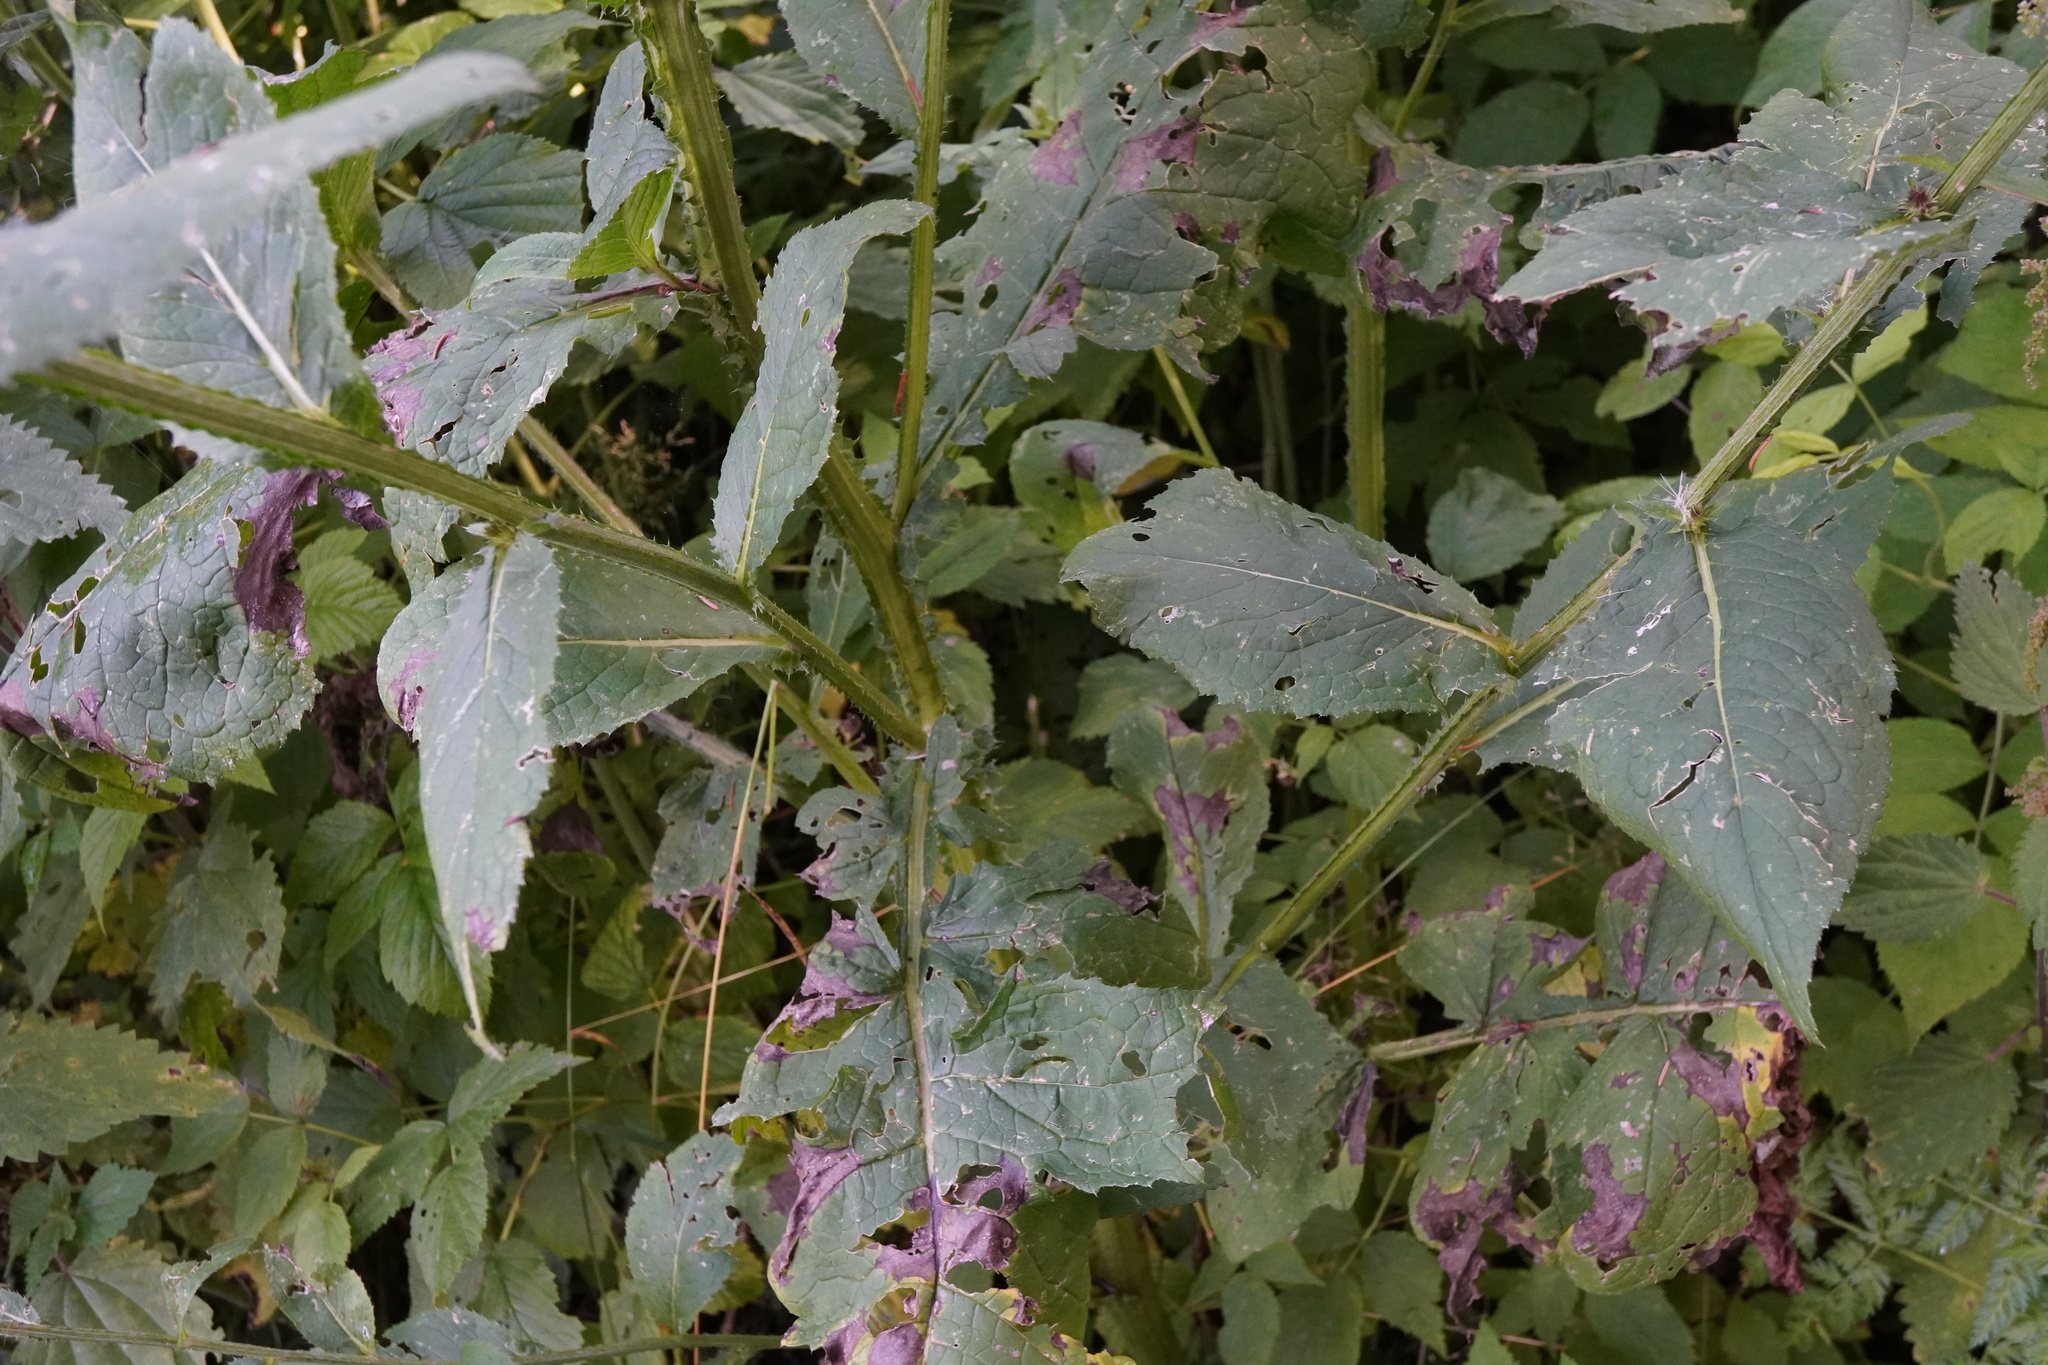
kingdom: Plantae
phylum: Tracheophyta
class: Magnoliopsida
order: Asterales
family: Asteraceae
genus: Carduus
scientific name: Carduus personata
